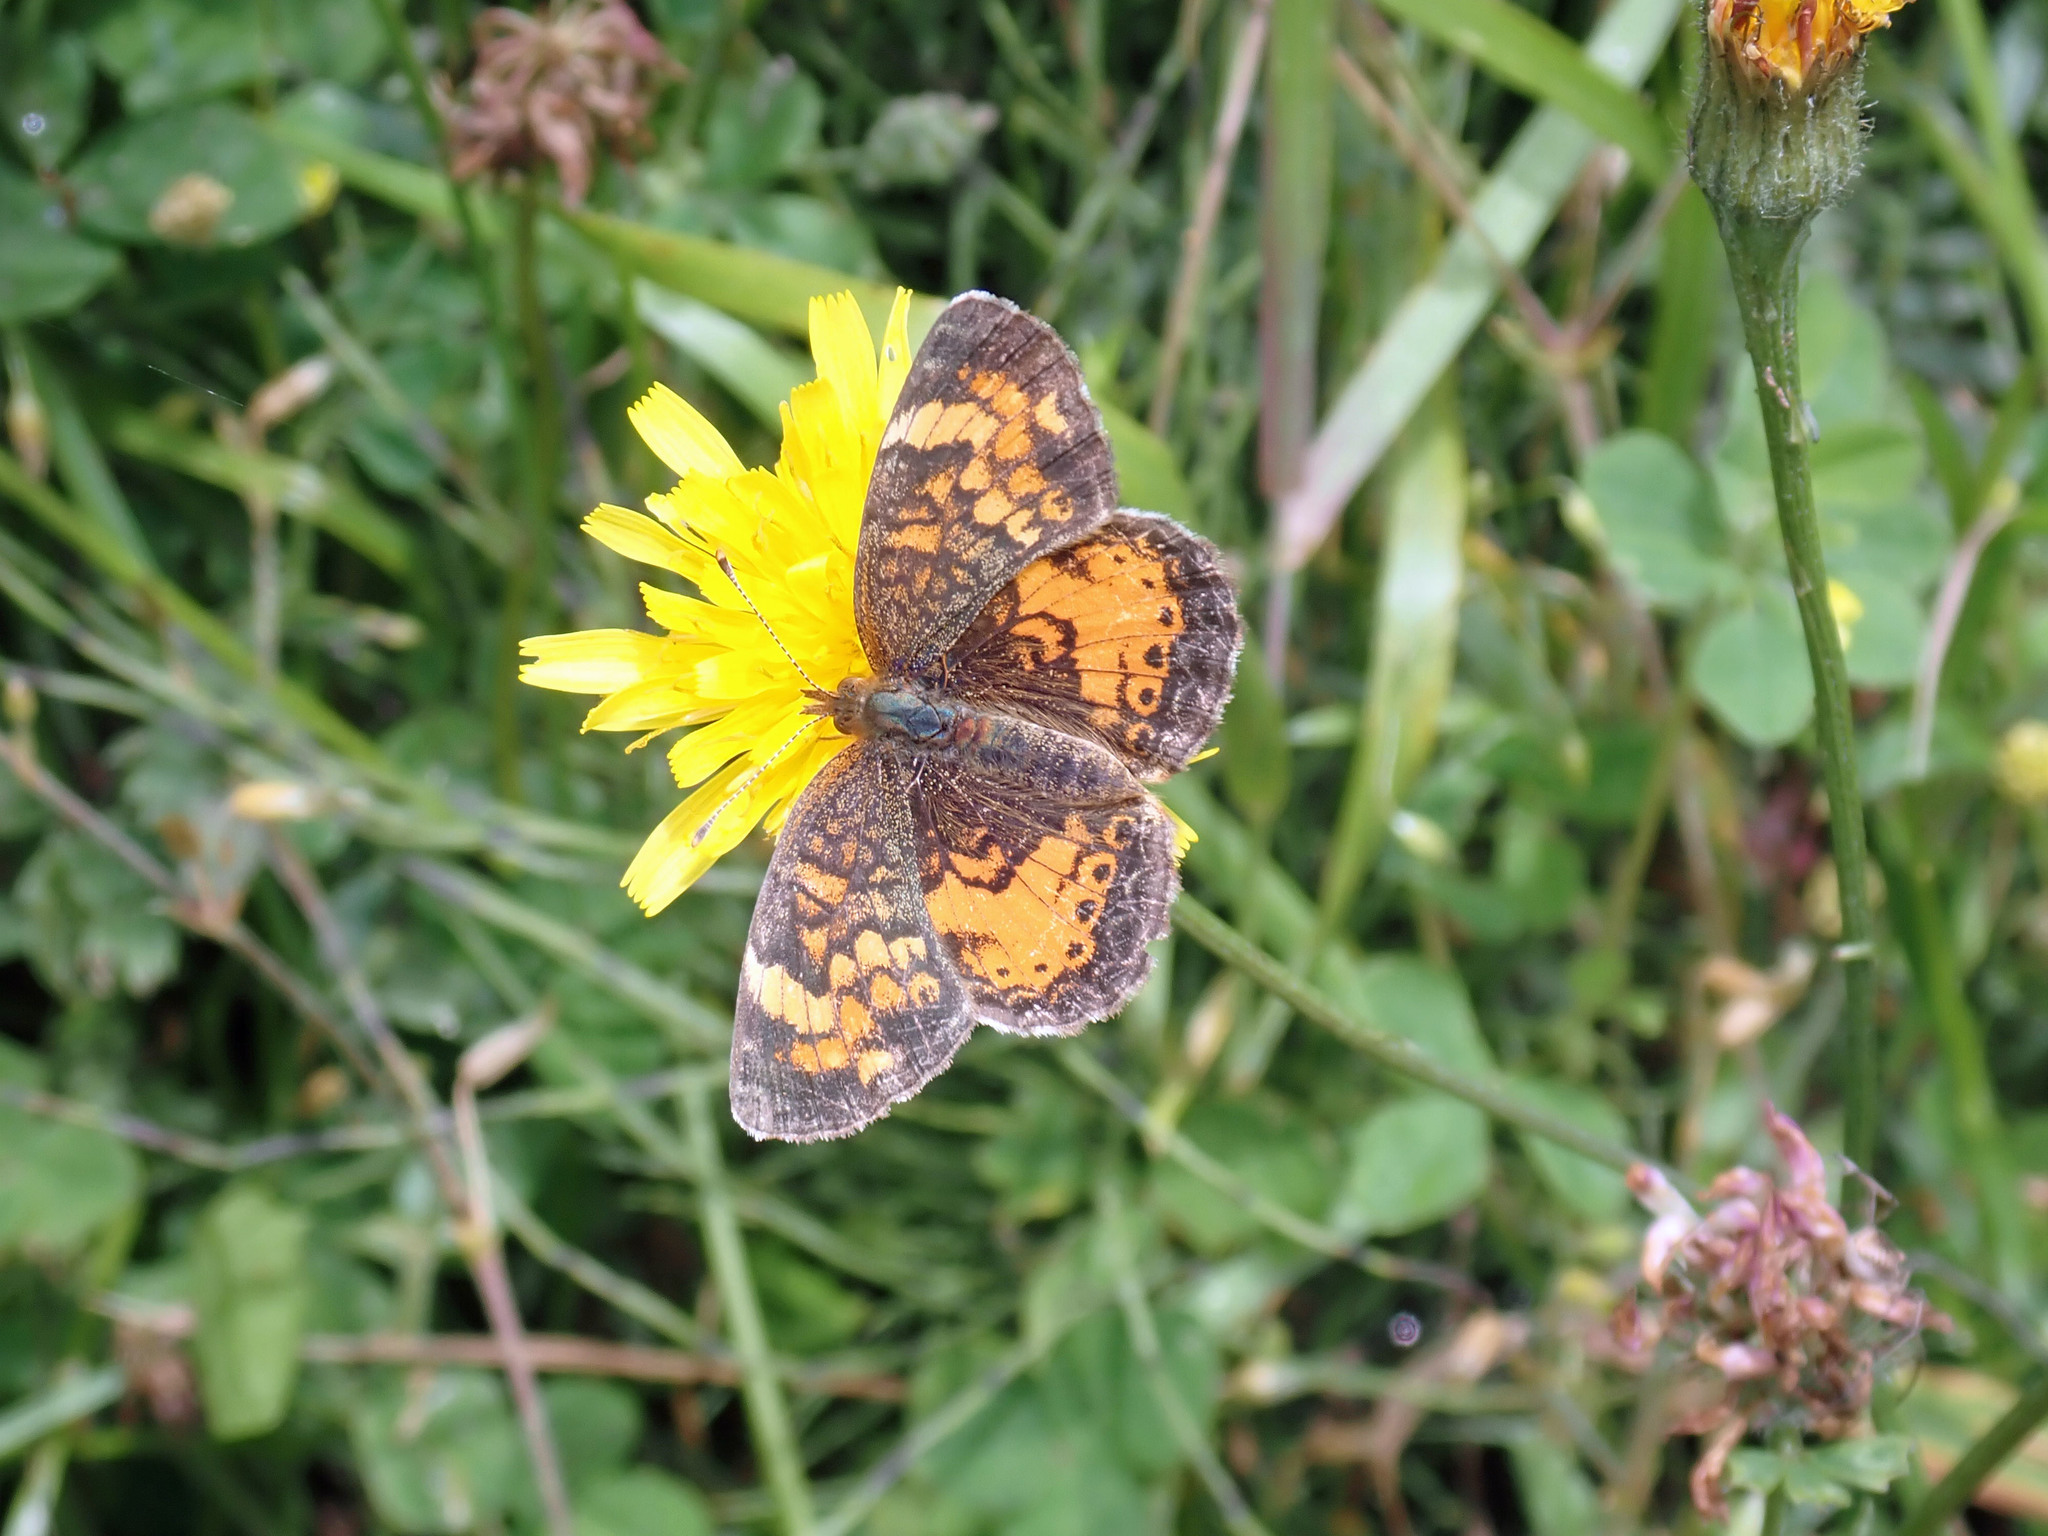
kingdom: Animalia
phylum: Arthropoda
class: Insecta
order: Lepidoptera
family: Nymphalidae
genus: Phyciodes
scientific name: Phyciodes tharos
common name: Pearl crescent
